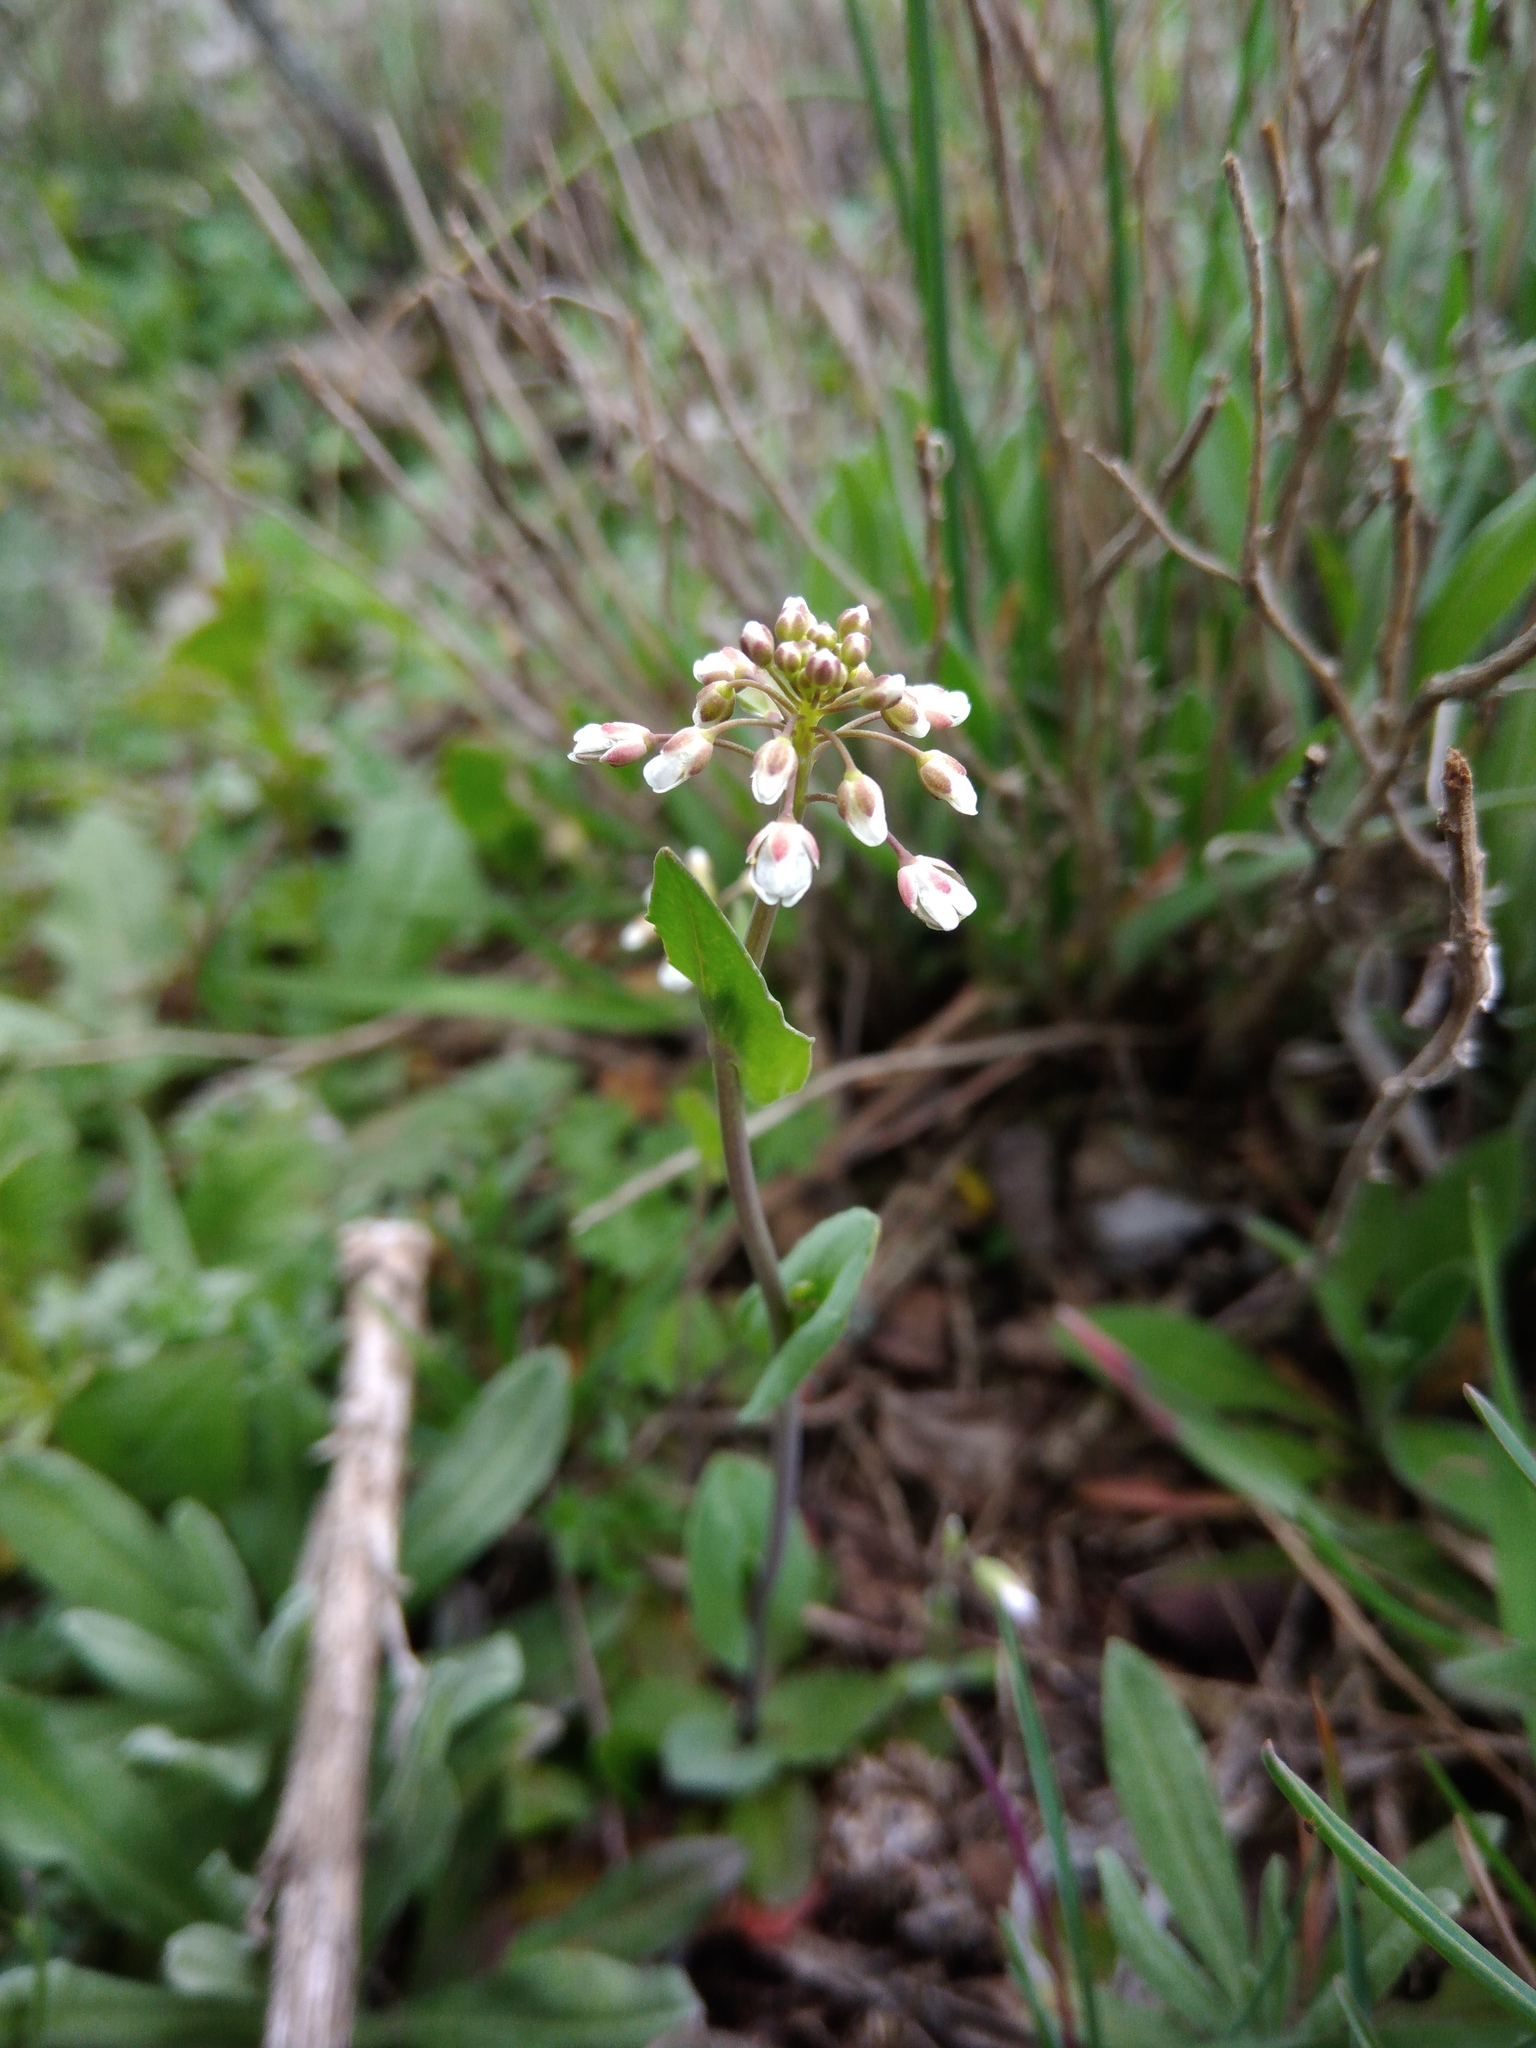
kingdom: Plantae
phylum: Tracheophyta
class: Magnoliopsida
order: Brassicales
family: Brassicaceae
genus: Noccaea
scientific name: Noccaea perfoliata
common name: Perfoliate pennycress
